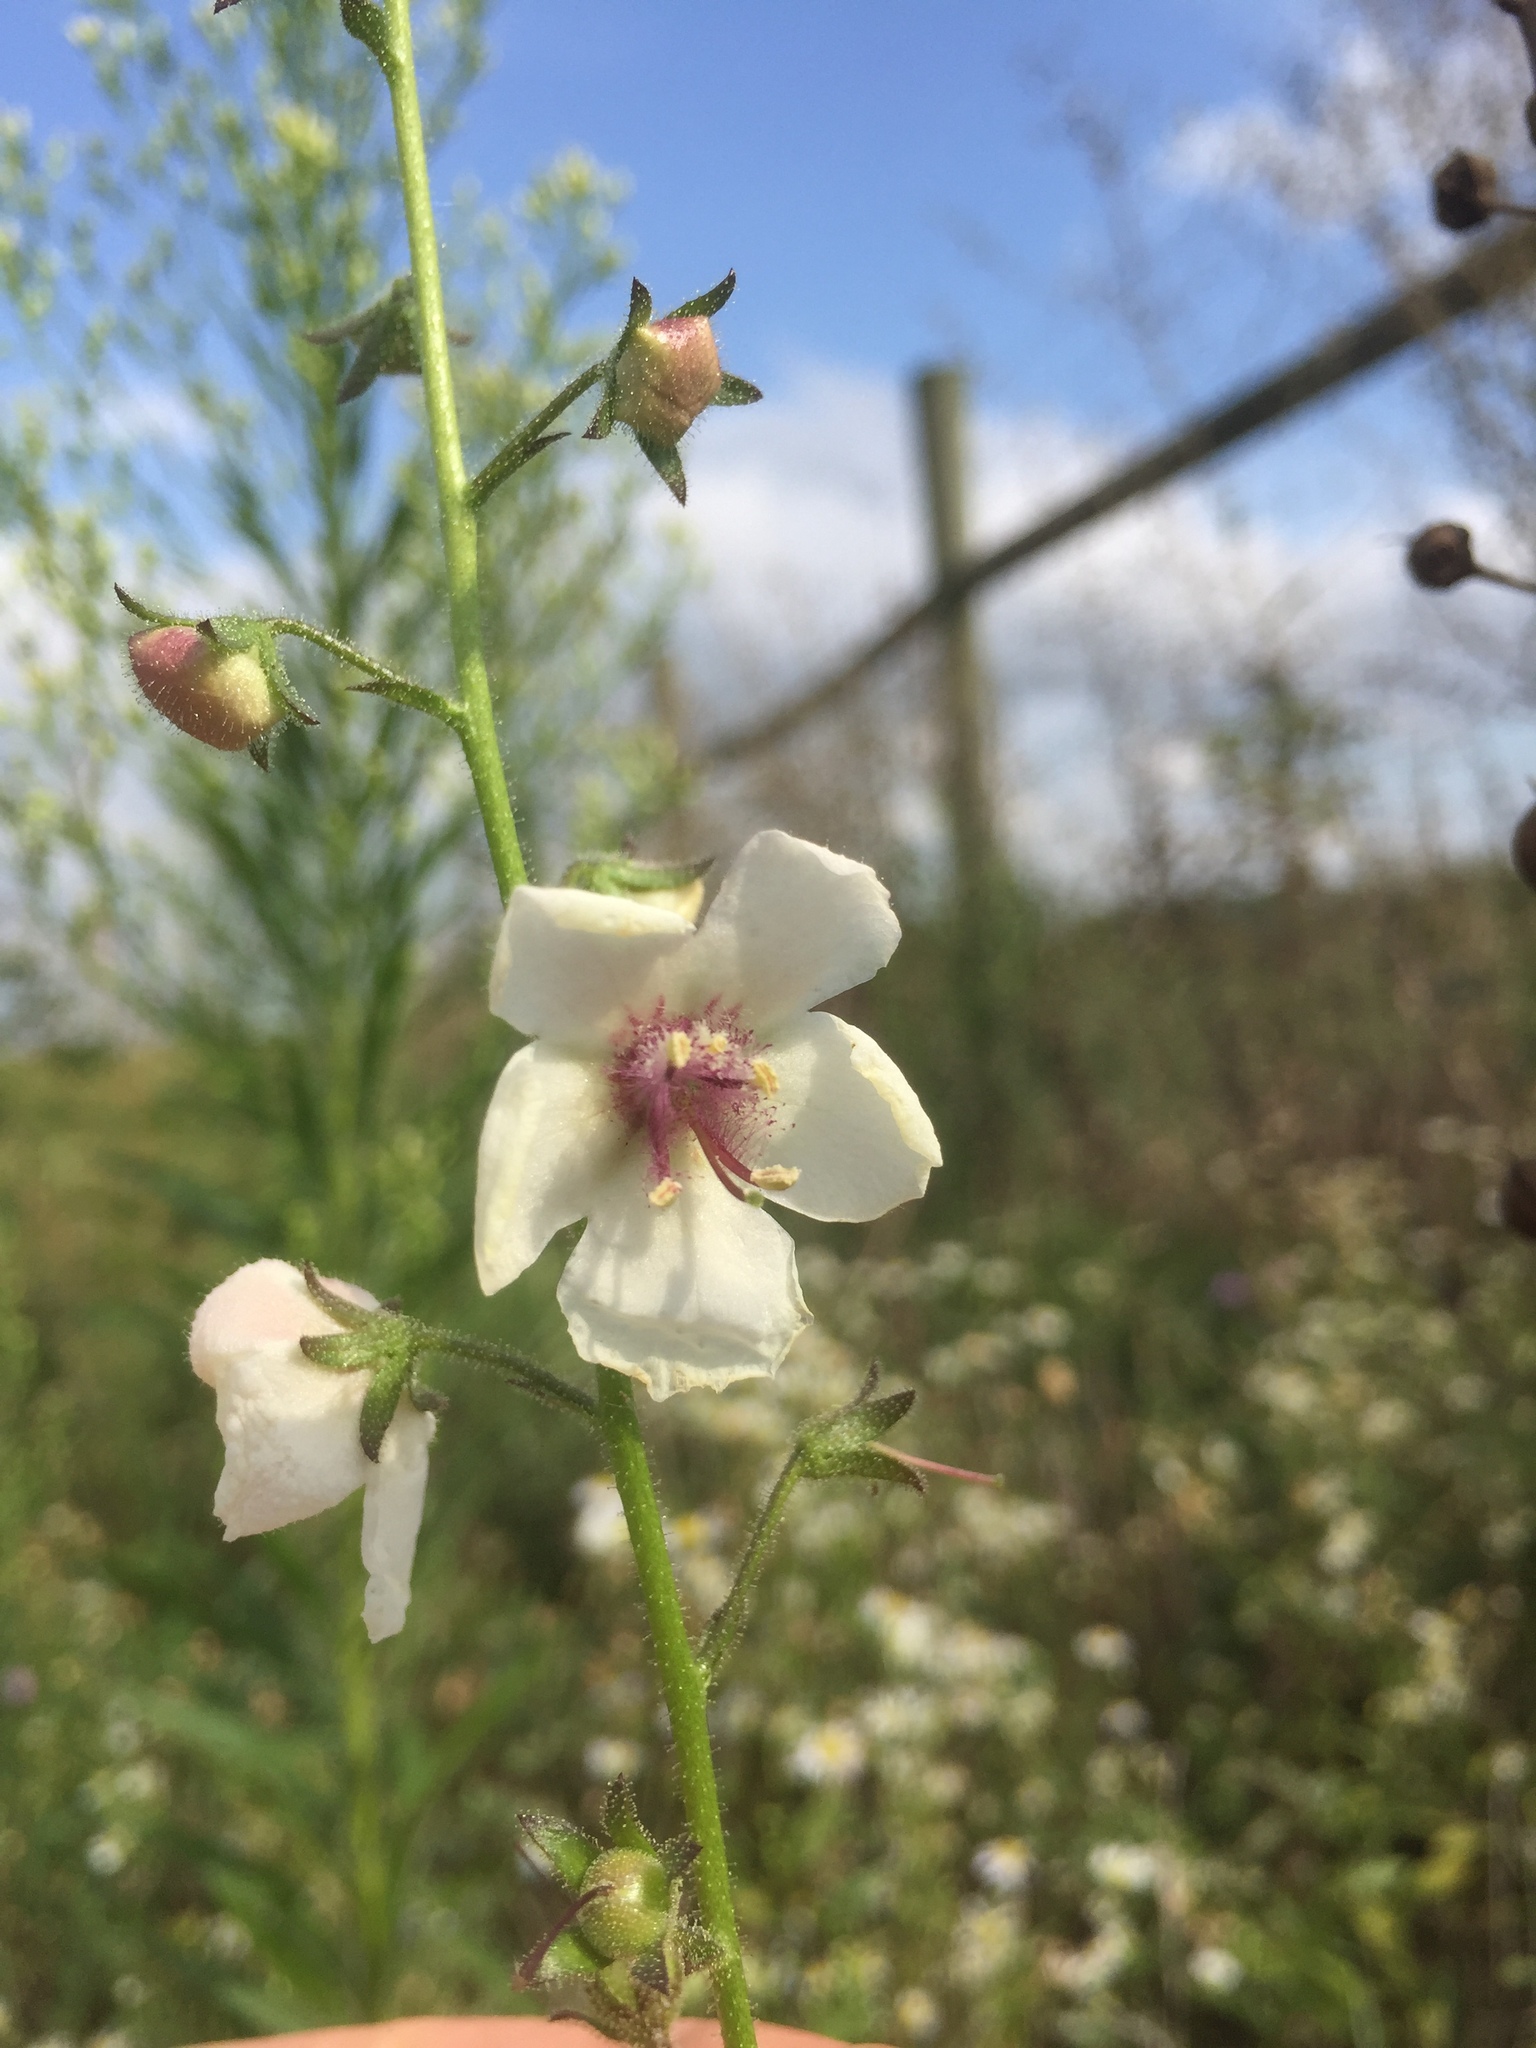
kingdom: Plantae
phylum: Tracheophyta
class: Magnoliopsida
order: Lamiales
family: Scrophulariaceae
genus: Verbascum
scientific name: Verbascum blattaria
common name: Moth mullein
